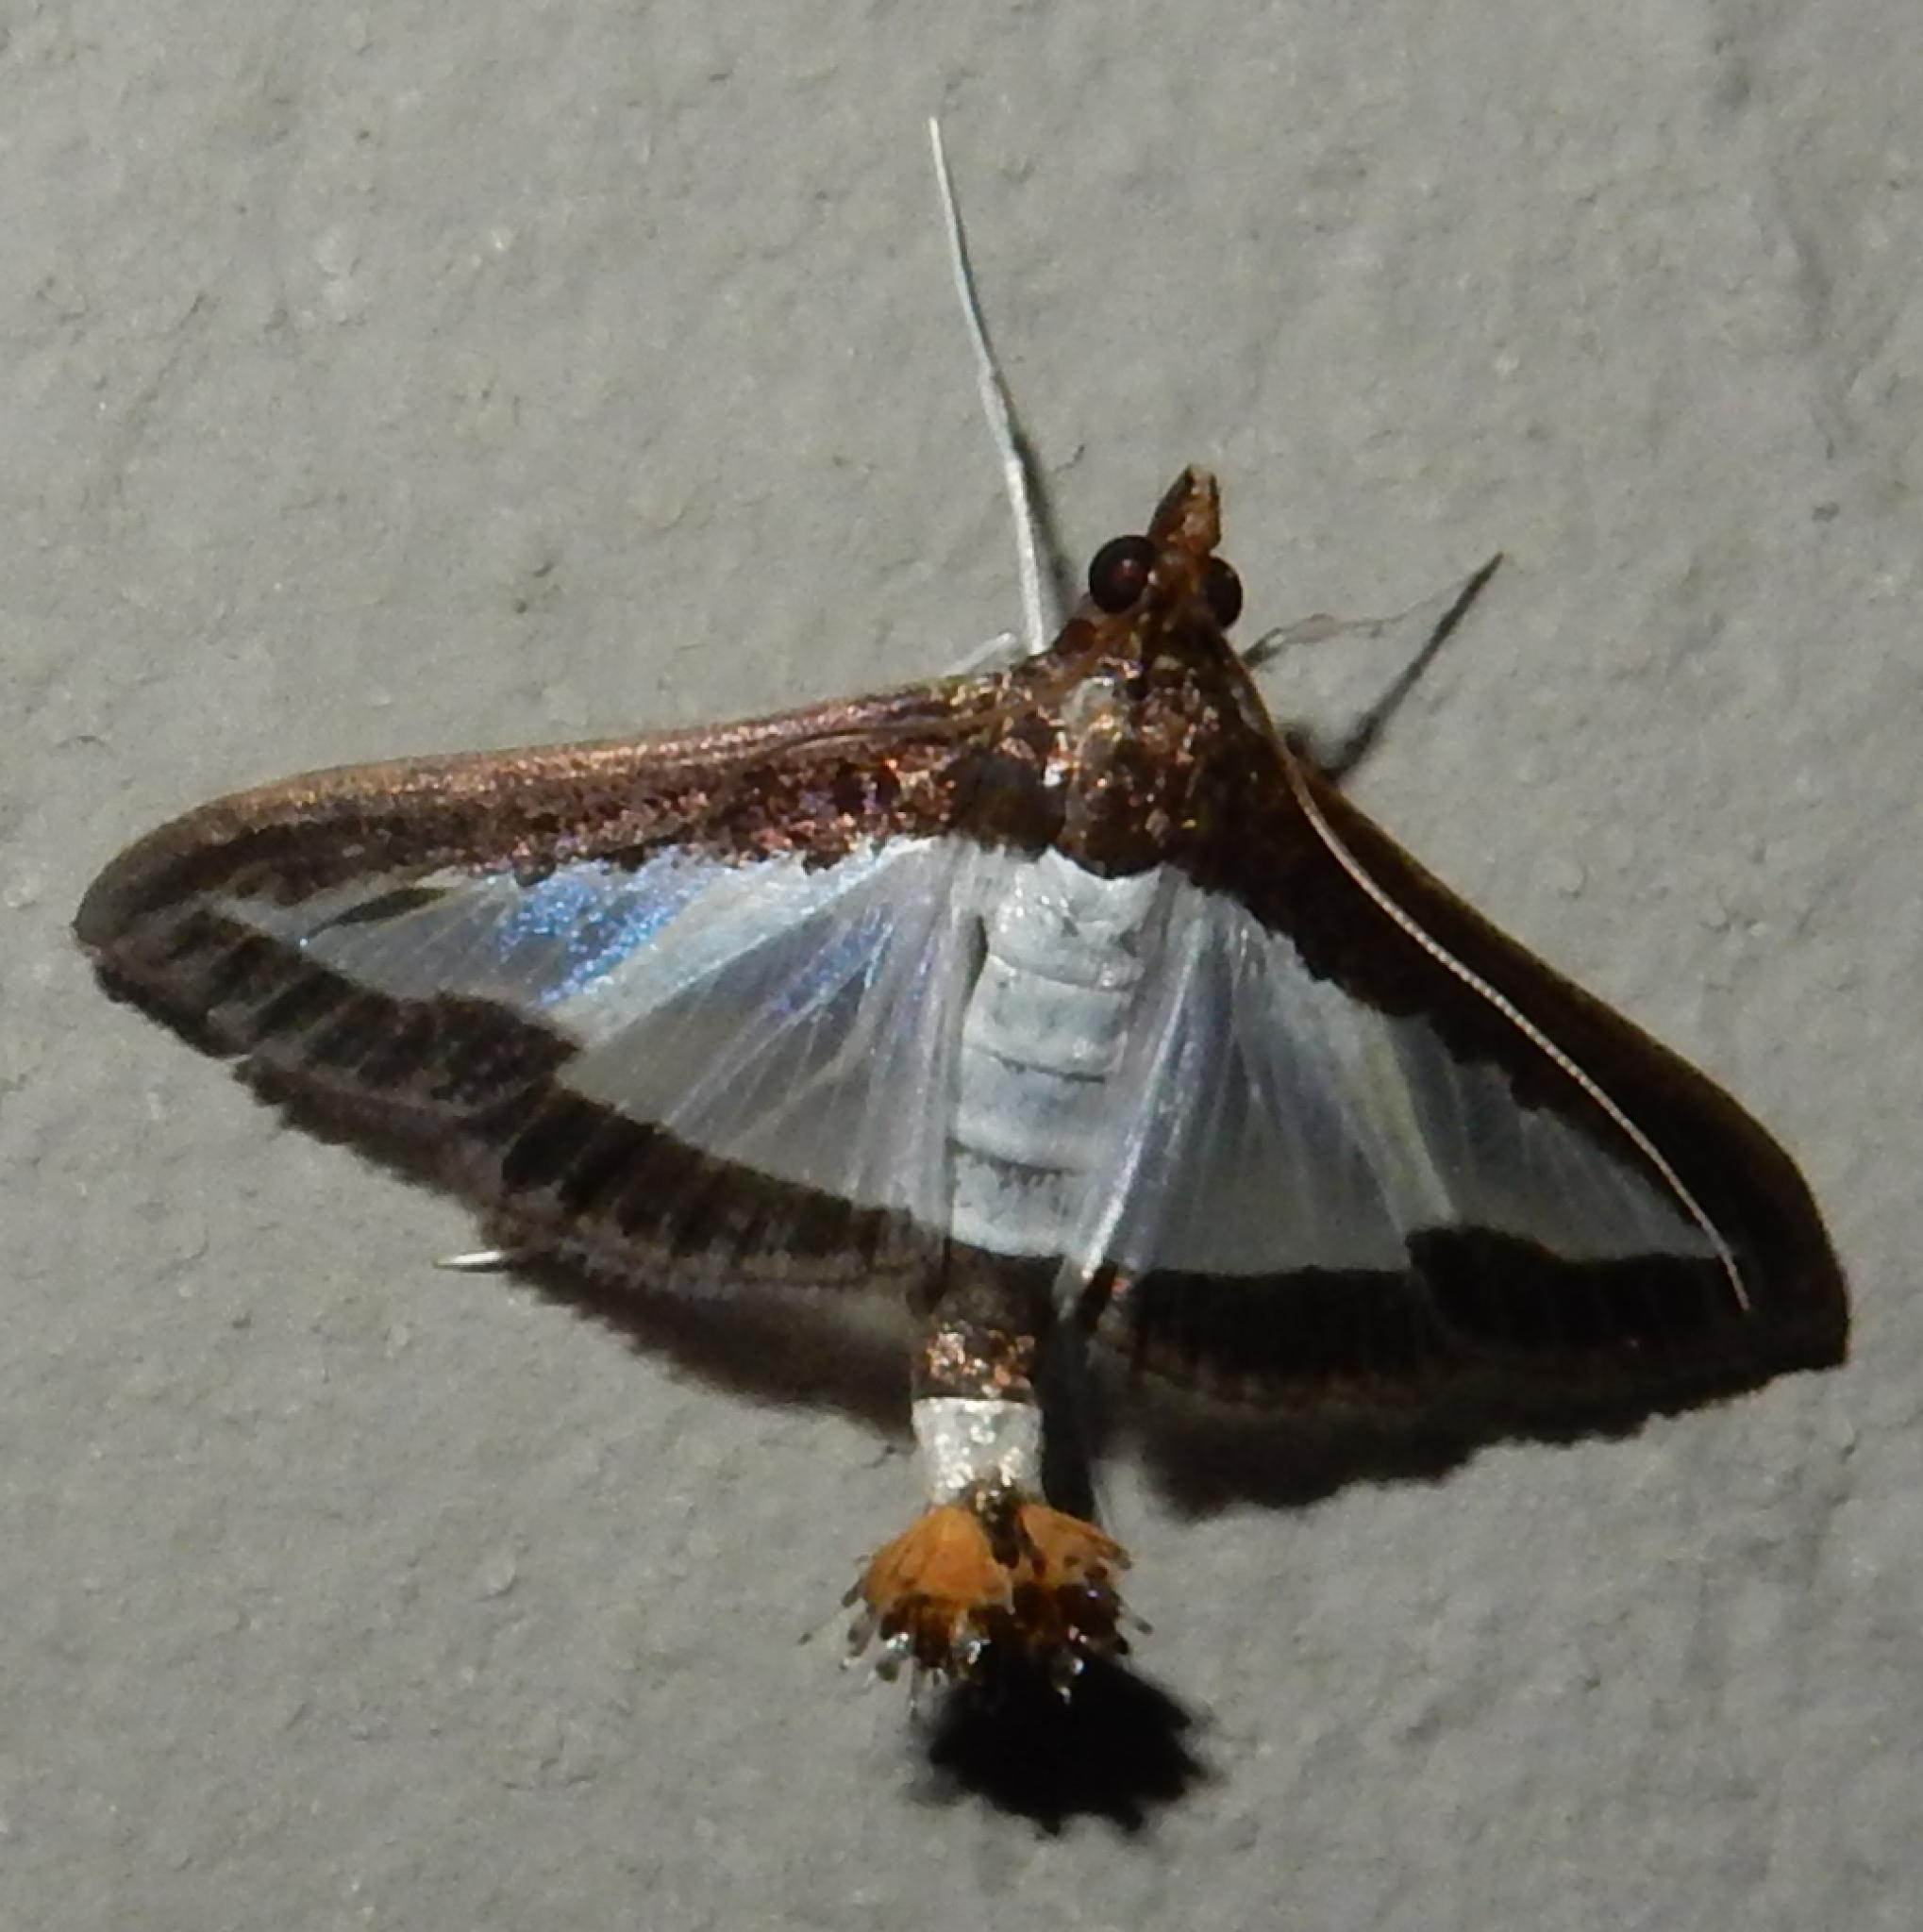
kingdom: Animalia
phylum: Arthropoda
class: Insecta
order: Lepidoptera
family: Crambidae
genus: Diaphania
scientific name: Diaphania indica
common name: Cucumber moth
